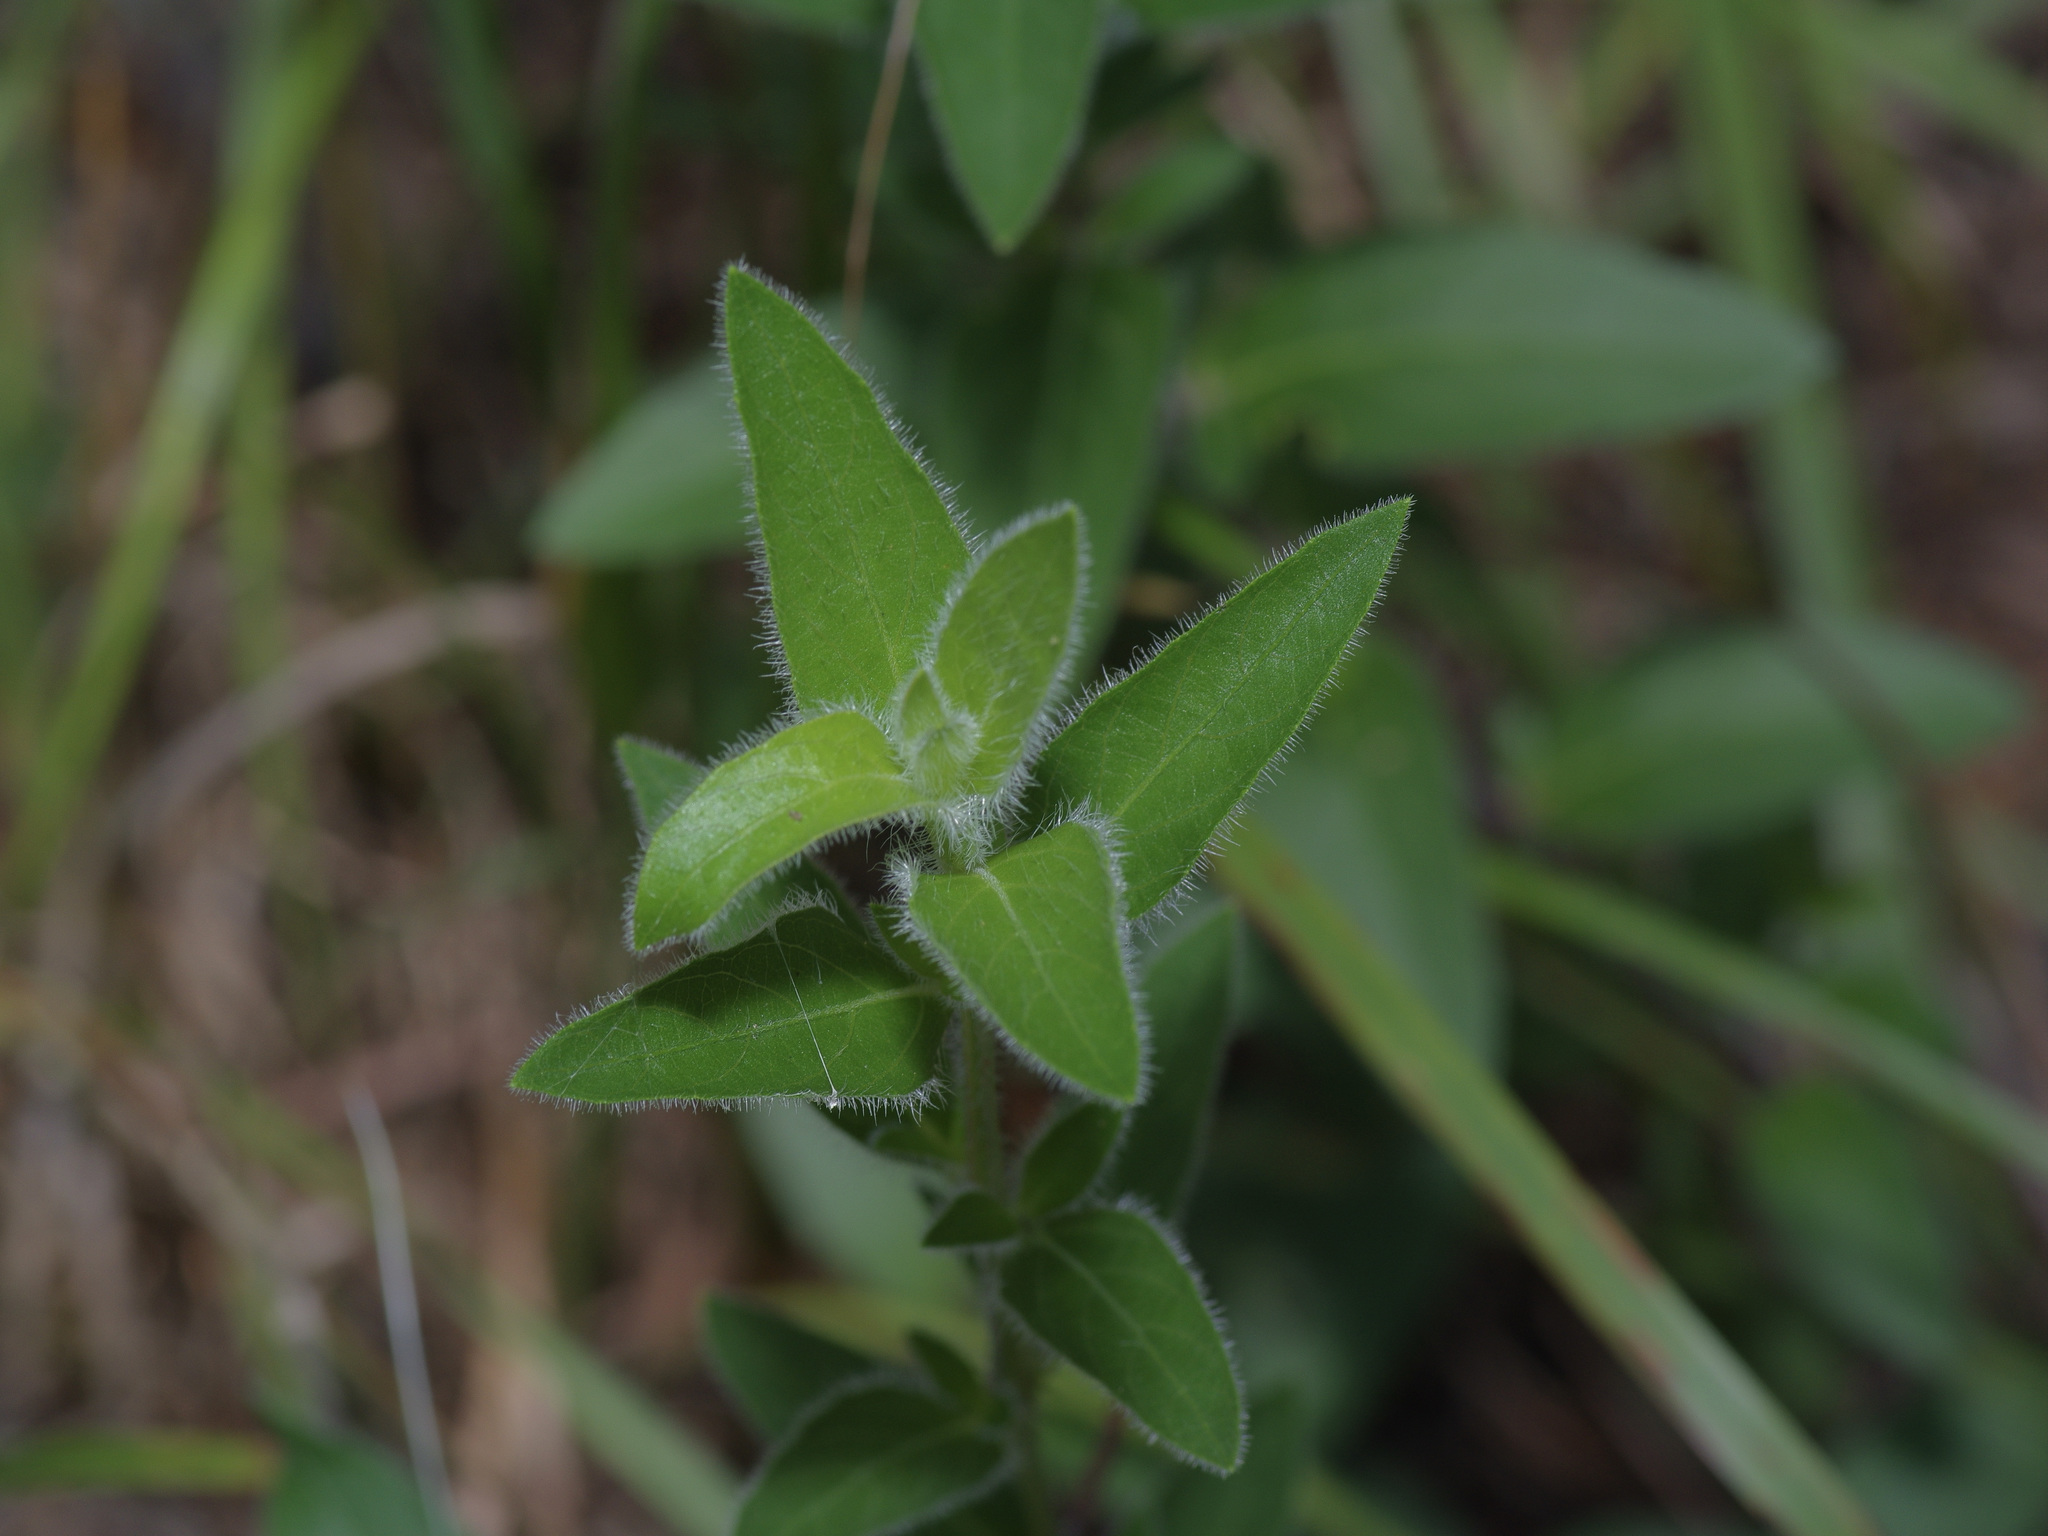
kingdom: Plantae
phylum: Tracheophyta
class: Magnoliopsida
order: Lamiales
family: Acanthaceae
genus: Ruellia
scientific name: Ruellia humilis
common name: Fringe-leaf ruellia
